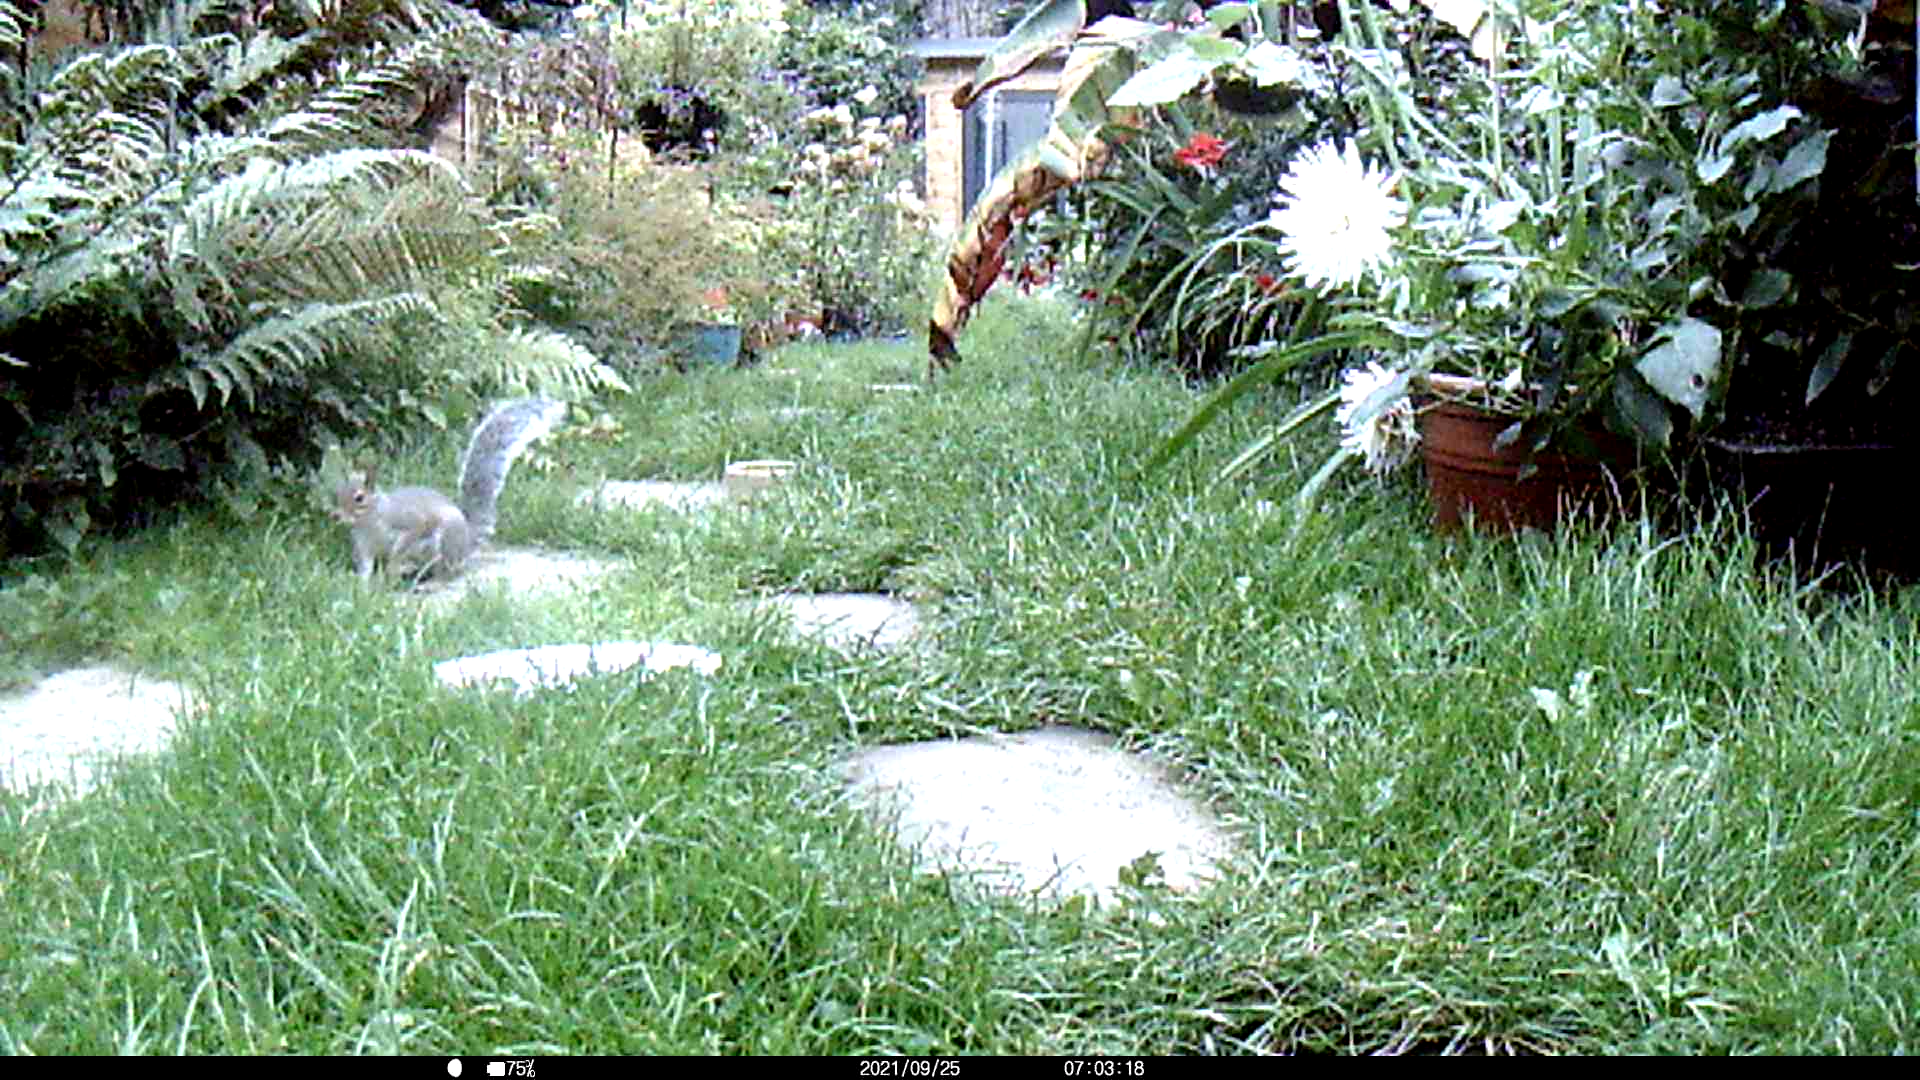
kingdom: Animalia
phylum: Chordata
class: Mammalia
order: Rodentia
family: Sciuridae
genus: Sciurus
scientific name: Sciurus carolinensis
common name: Eastern gray squirrel
